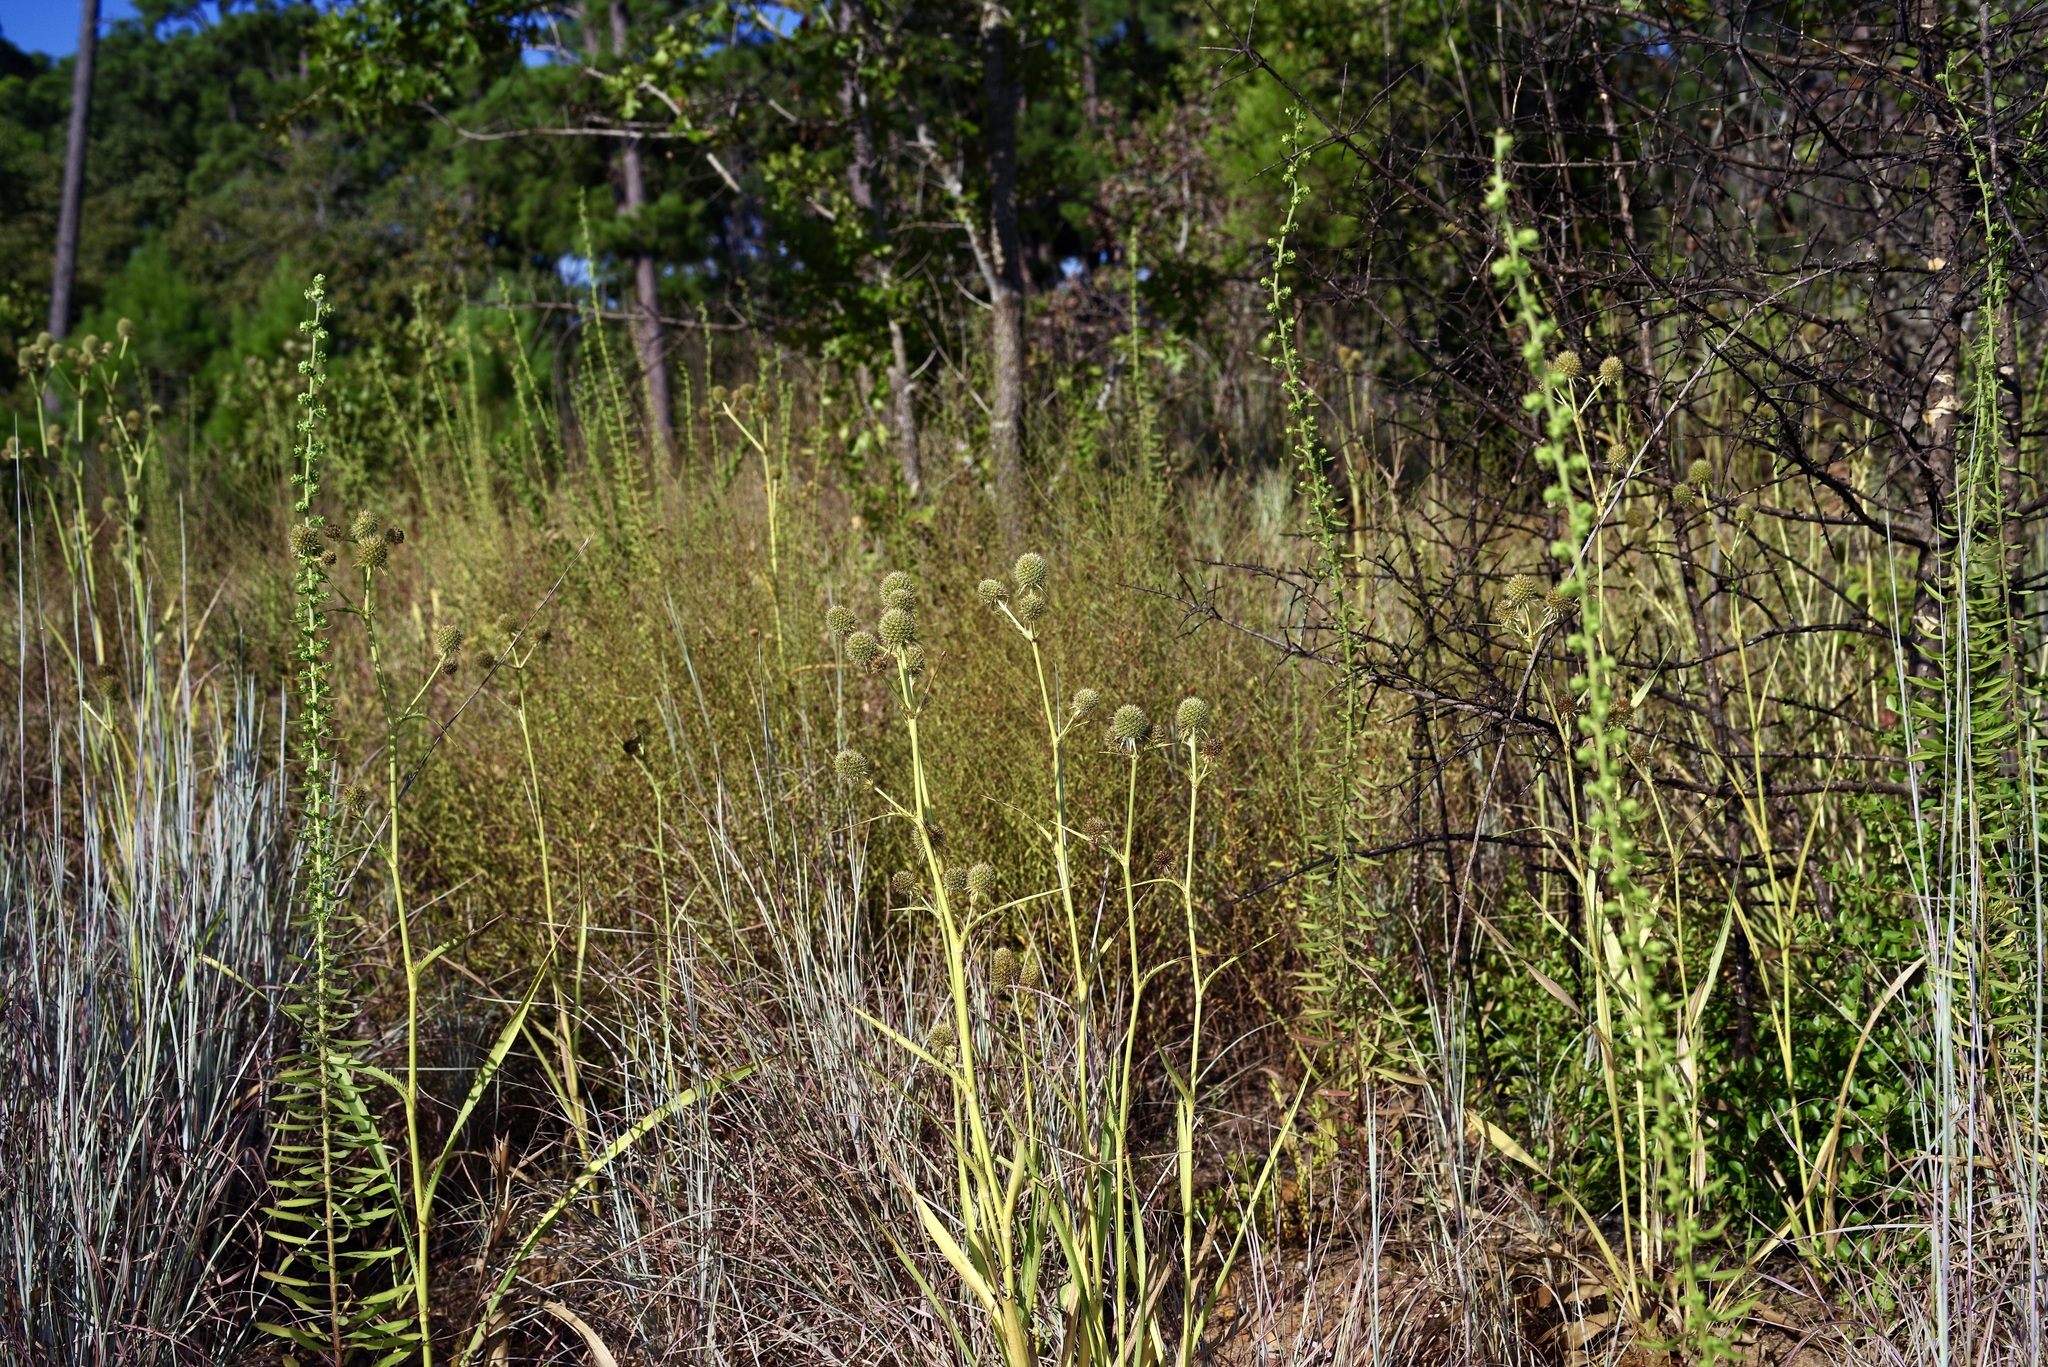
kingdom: Plantae
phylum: Tracheophyta
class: Magnoliopsida
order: Apiales
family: Apiaceae
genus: Eryngium
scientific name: Eryngium yuccifolium
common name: Button eryngo
